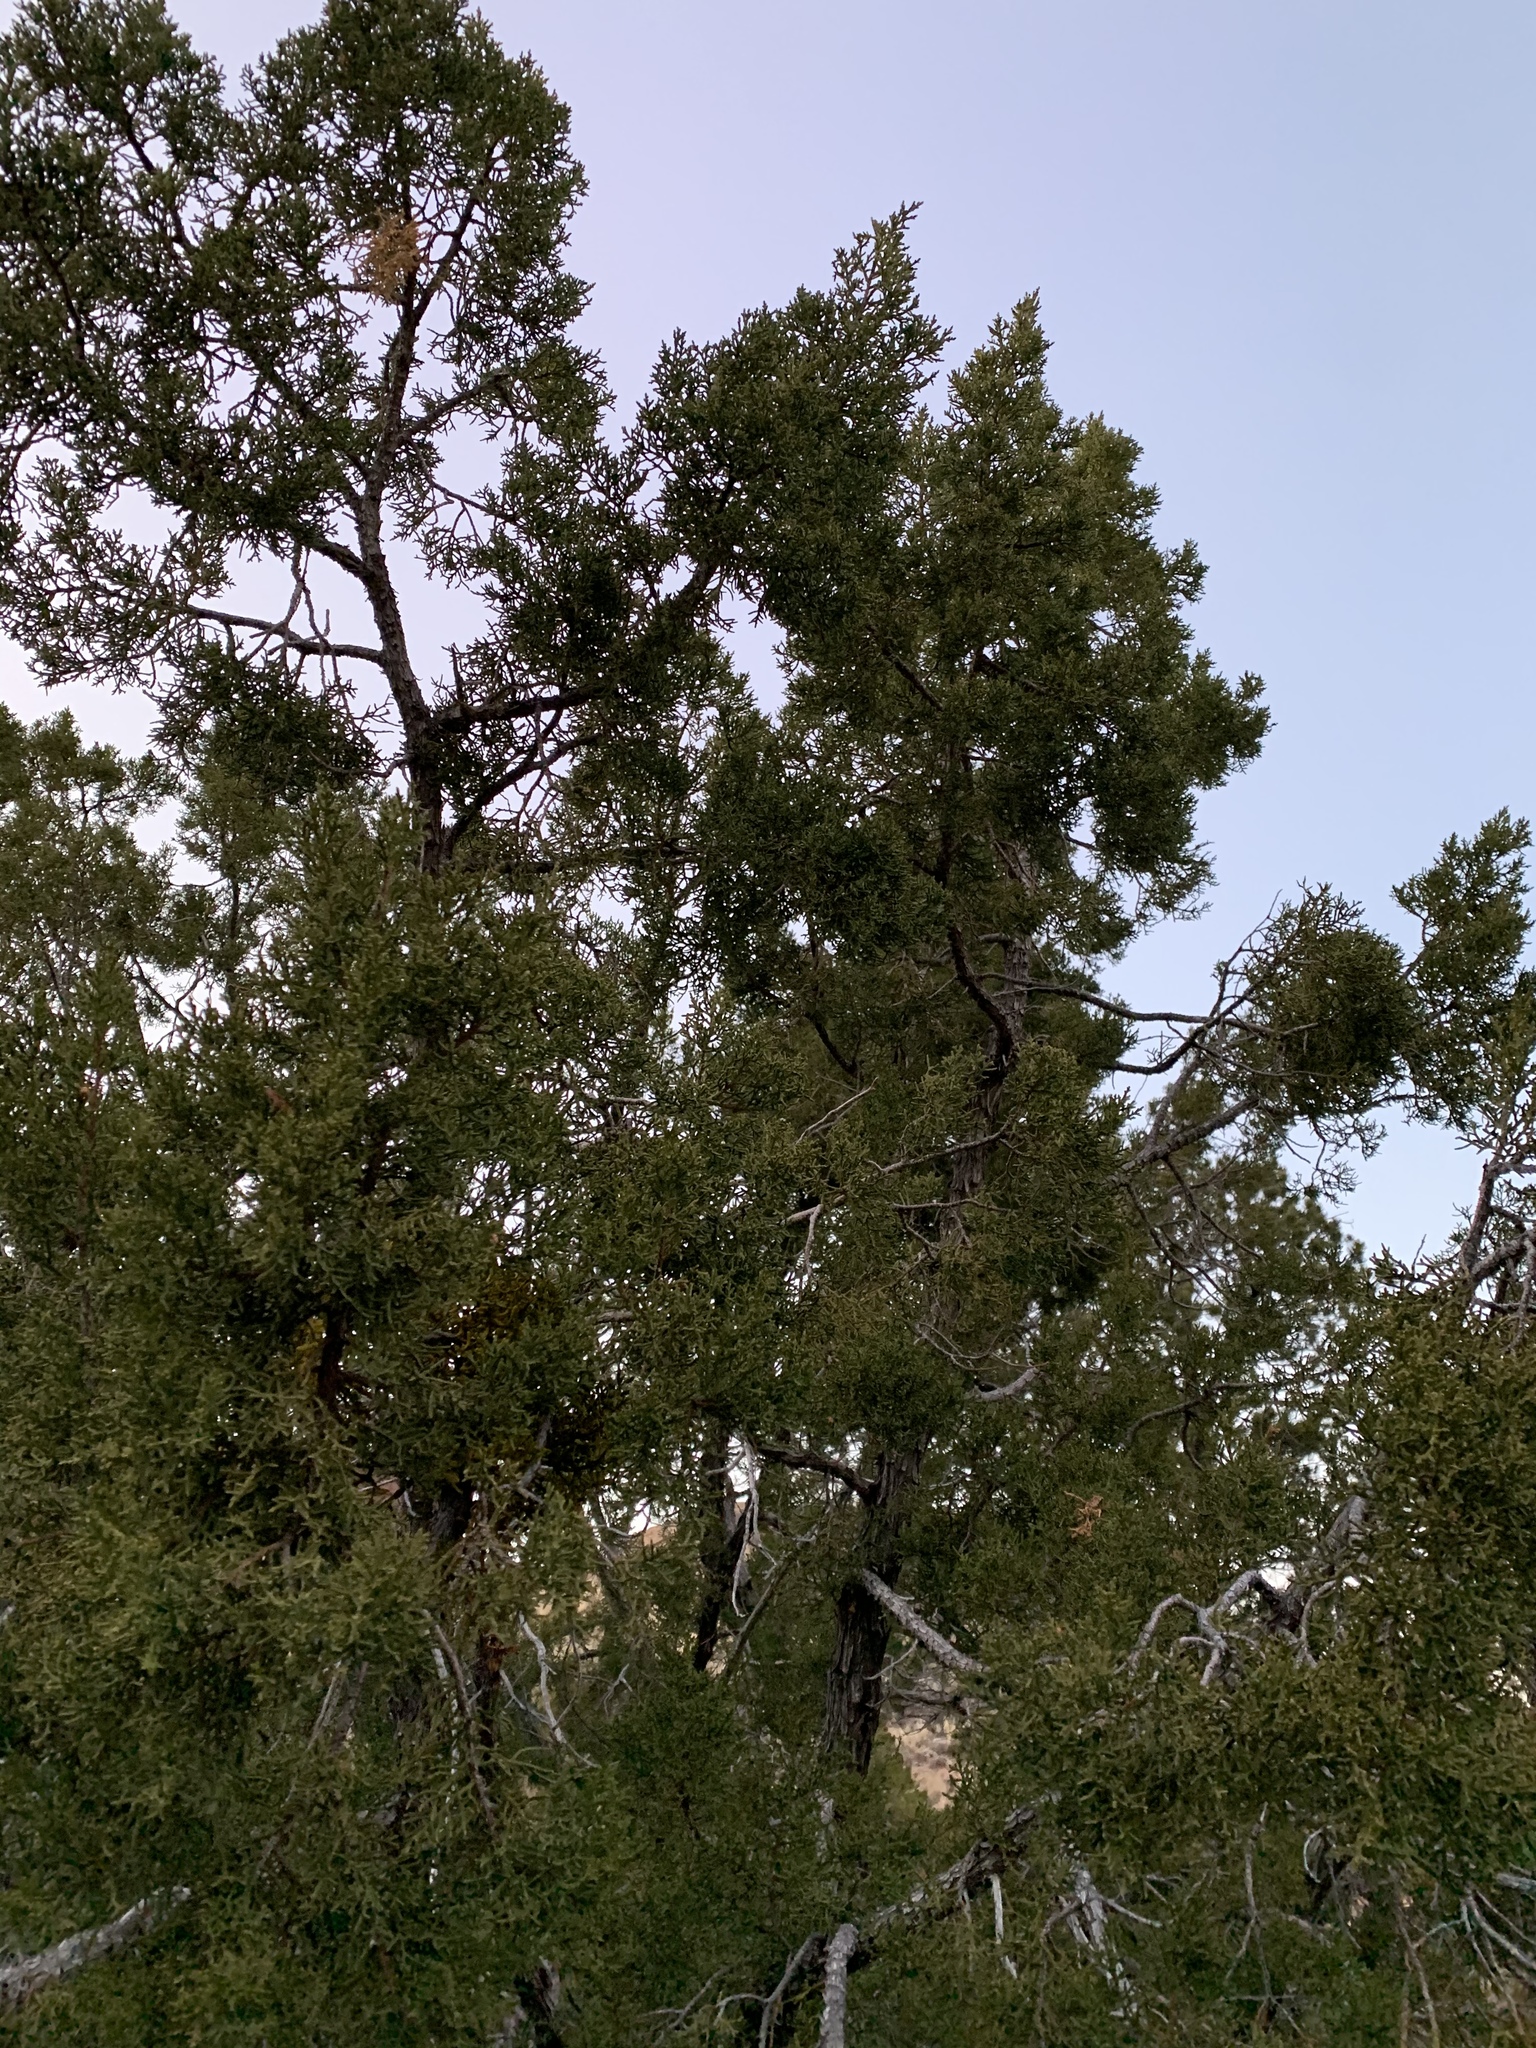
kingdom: Plantae
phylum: Tracheophyta
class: Pinopsida
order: Pinales
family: Cupressaceae
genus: Juniperus
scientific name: Juniperus monosperma
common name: One-seed juniper
